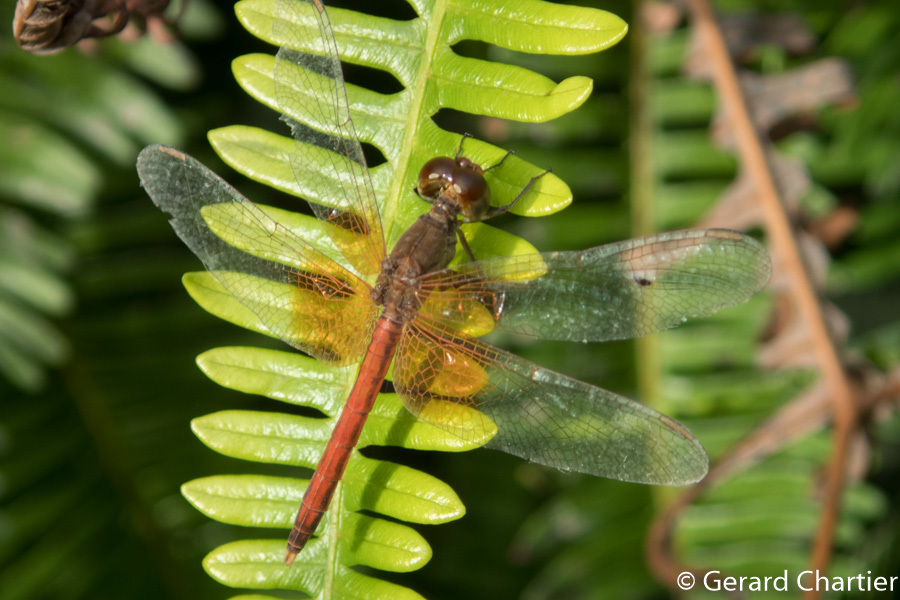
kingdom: Animalia
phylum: Arthropoda
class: Insecta
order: Odonata
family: Libellulidae
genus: Neurothemis
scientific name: Neurothemis intermedia
